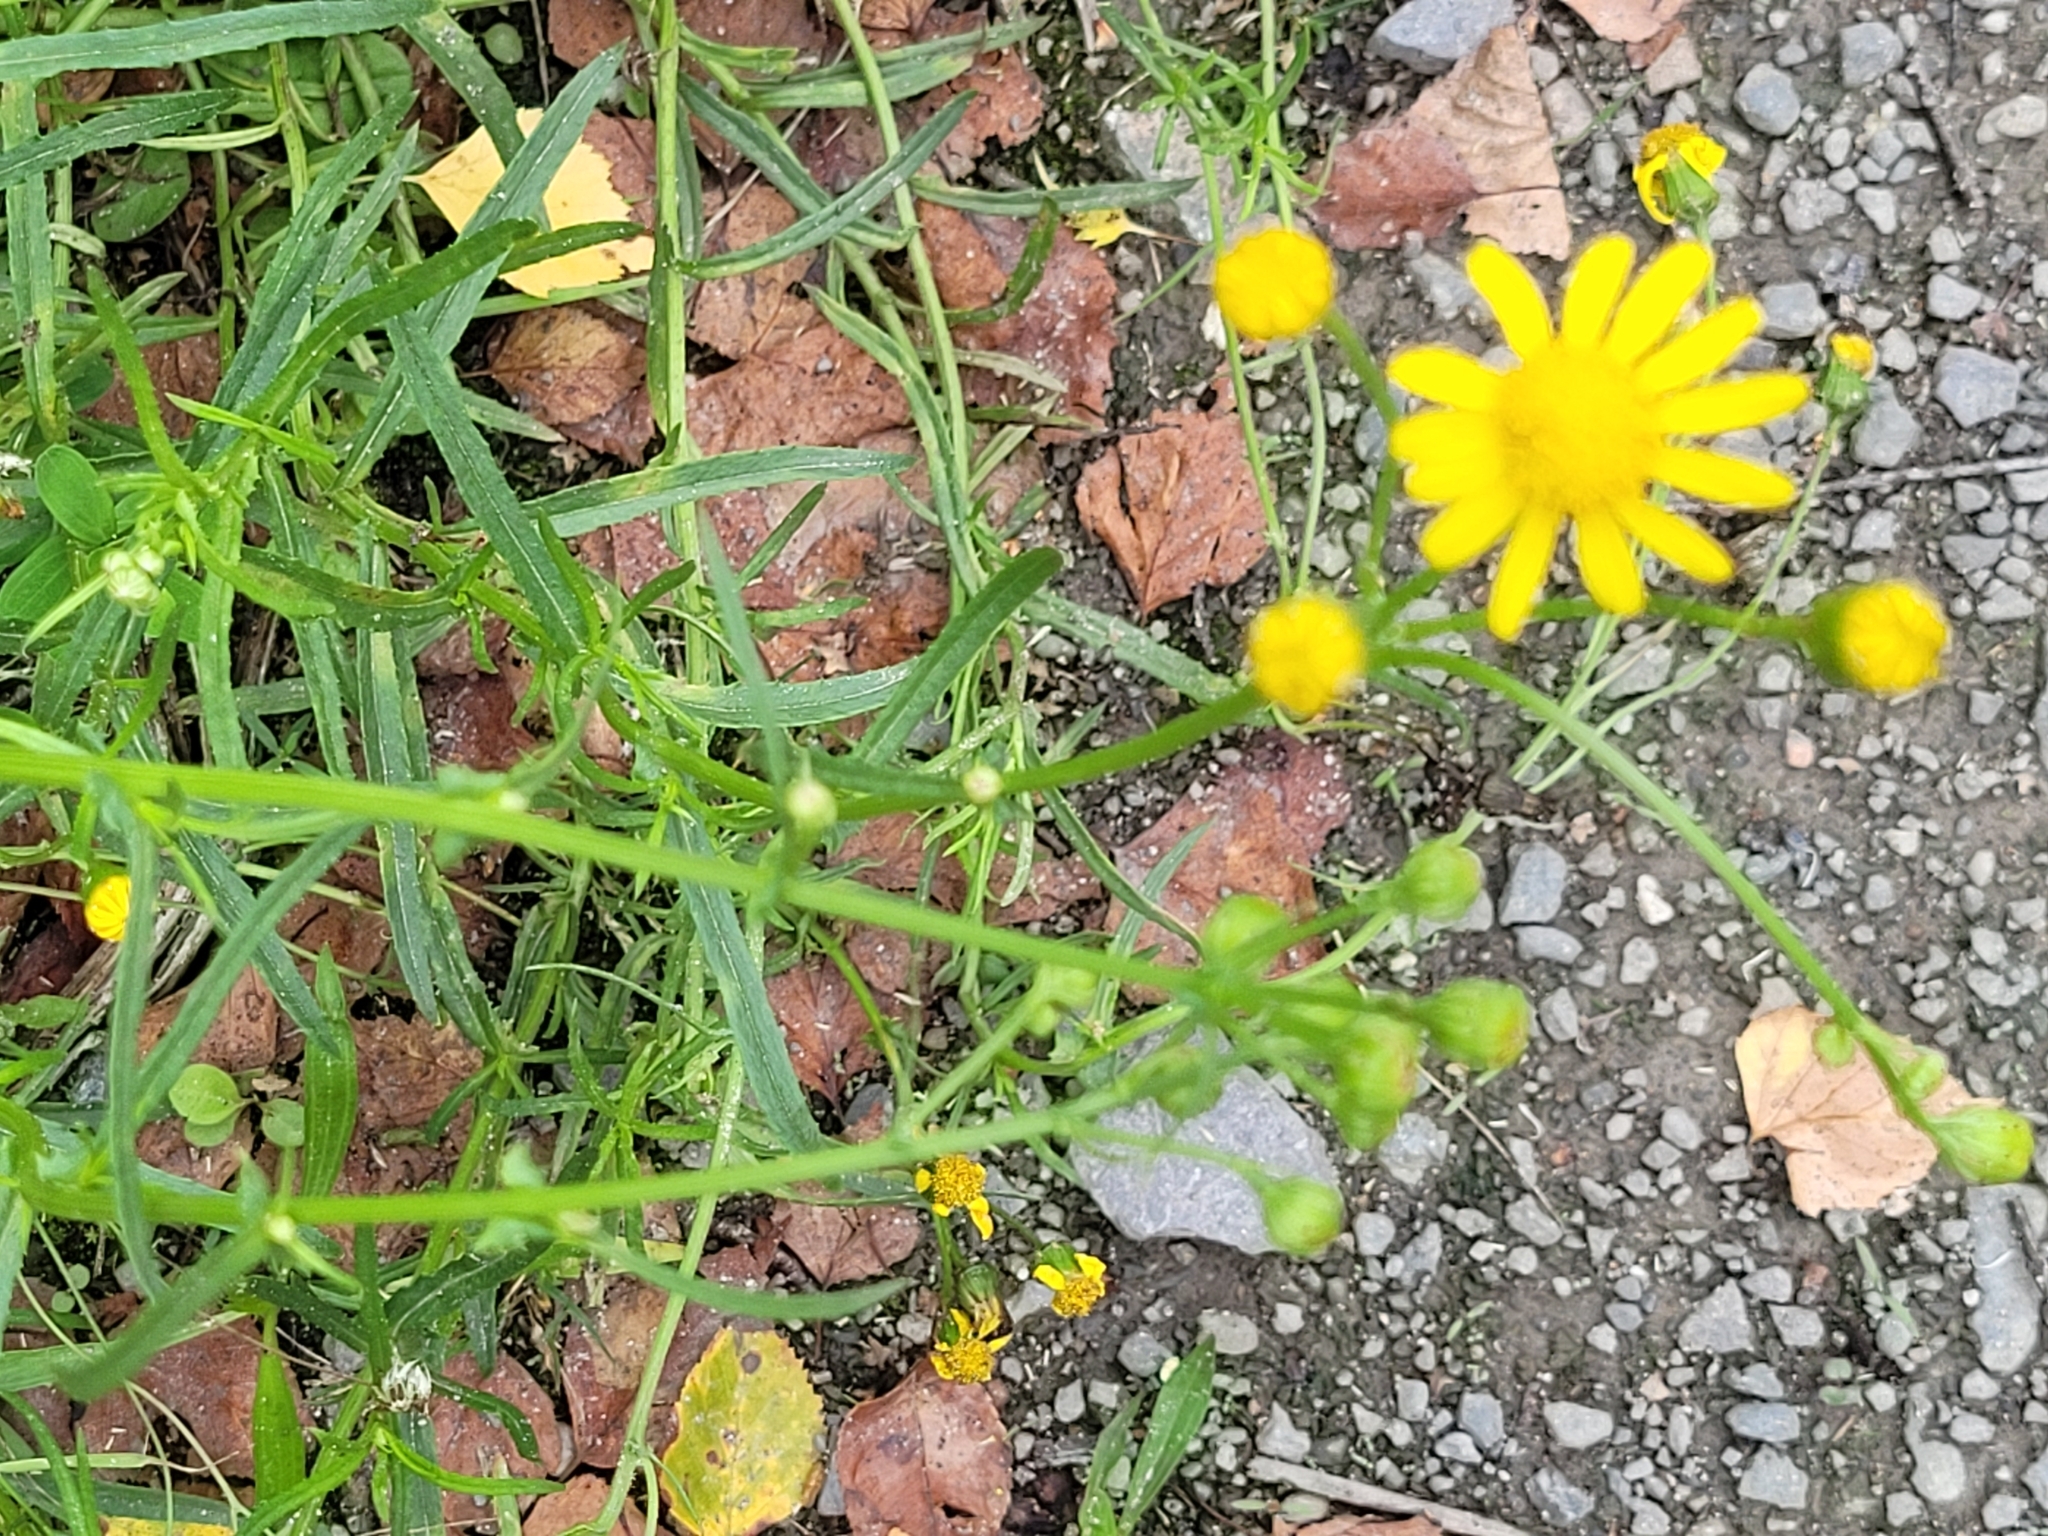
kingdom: Plantae
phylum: Tracheophyta
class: Magnoliopsida
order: Asterales
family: Asteraceae
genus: Senecio
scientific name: Senecio inaequidens
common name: Narrow-leaved ragwort
